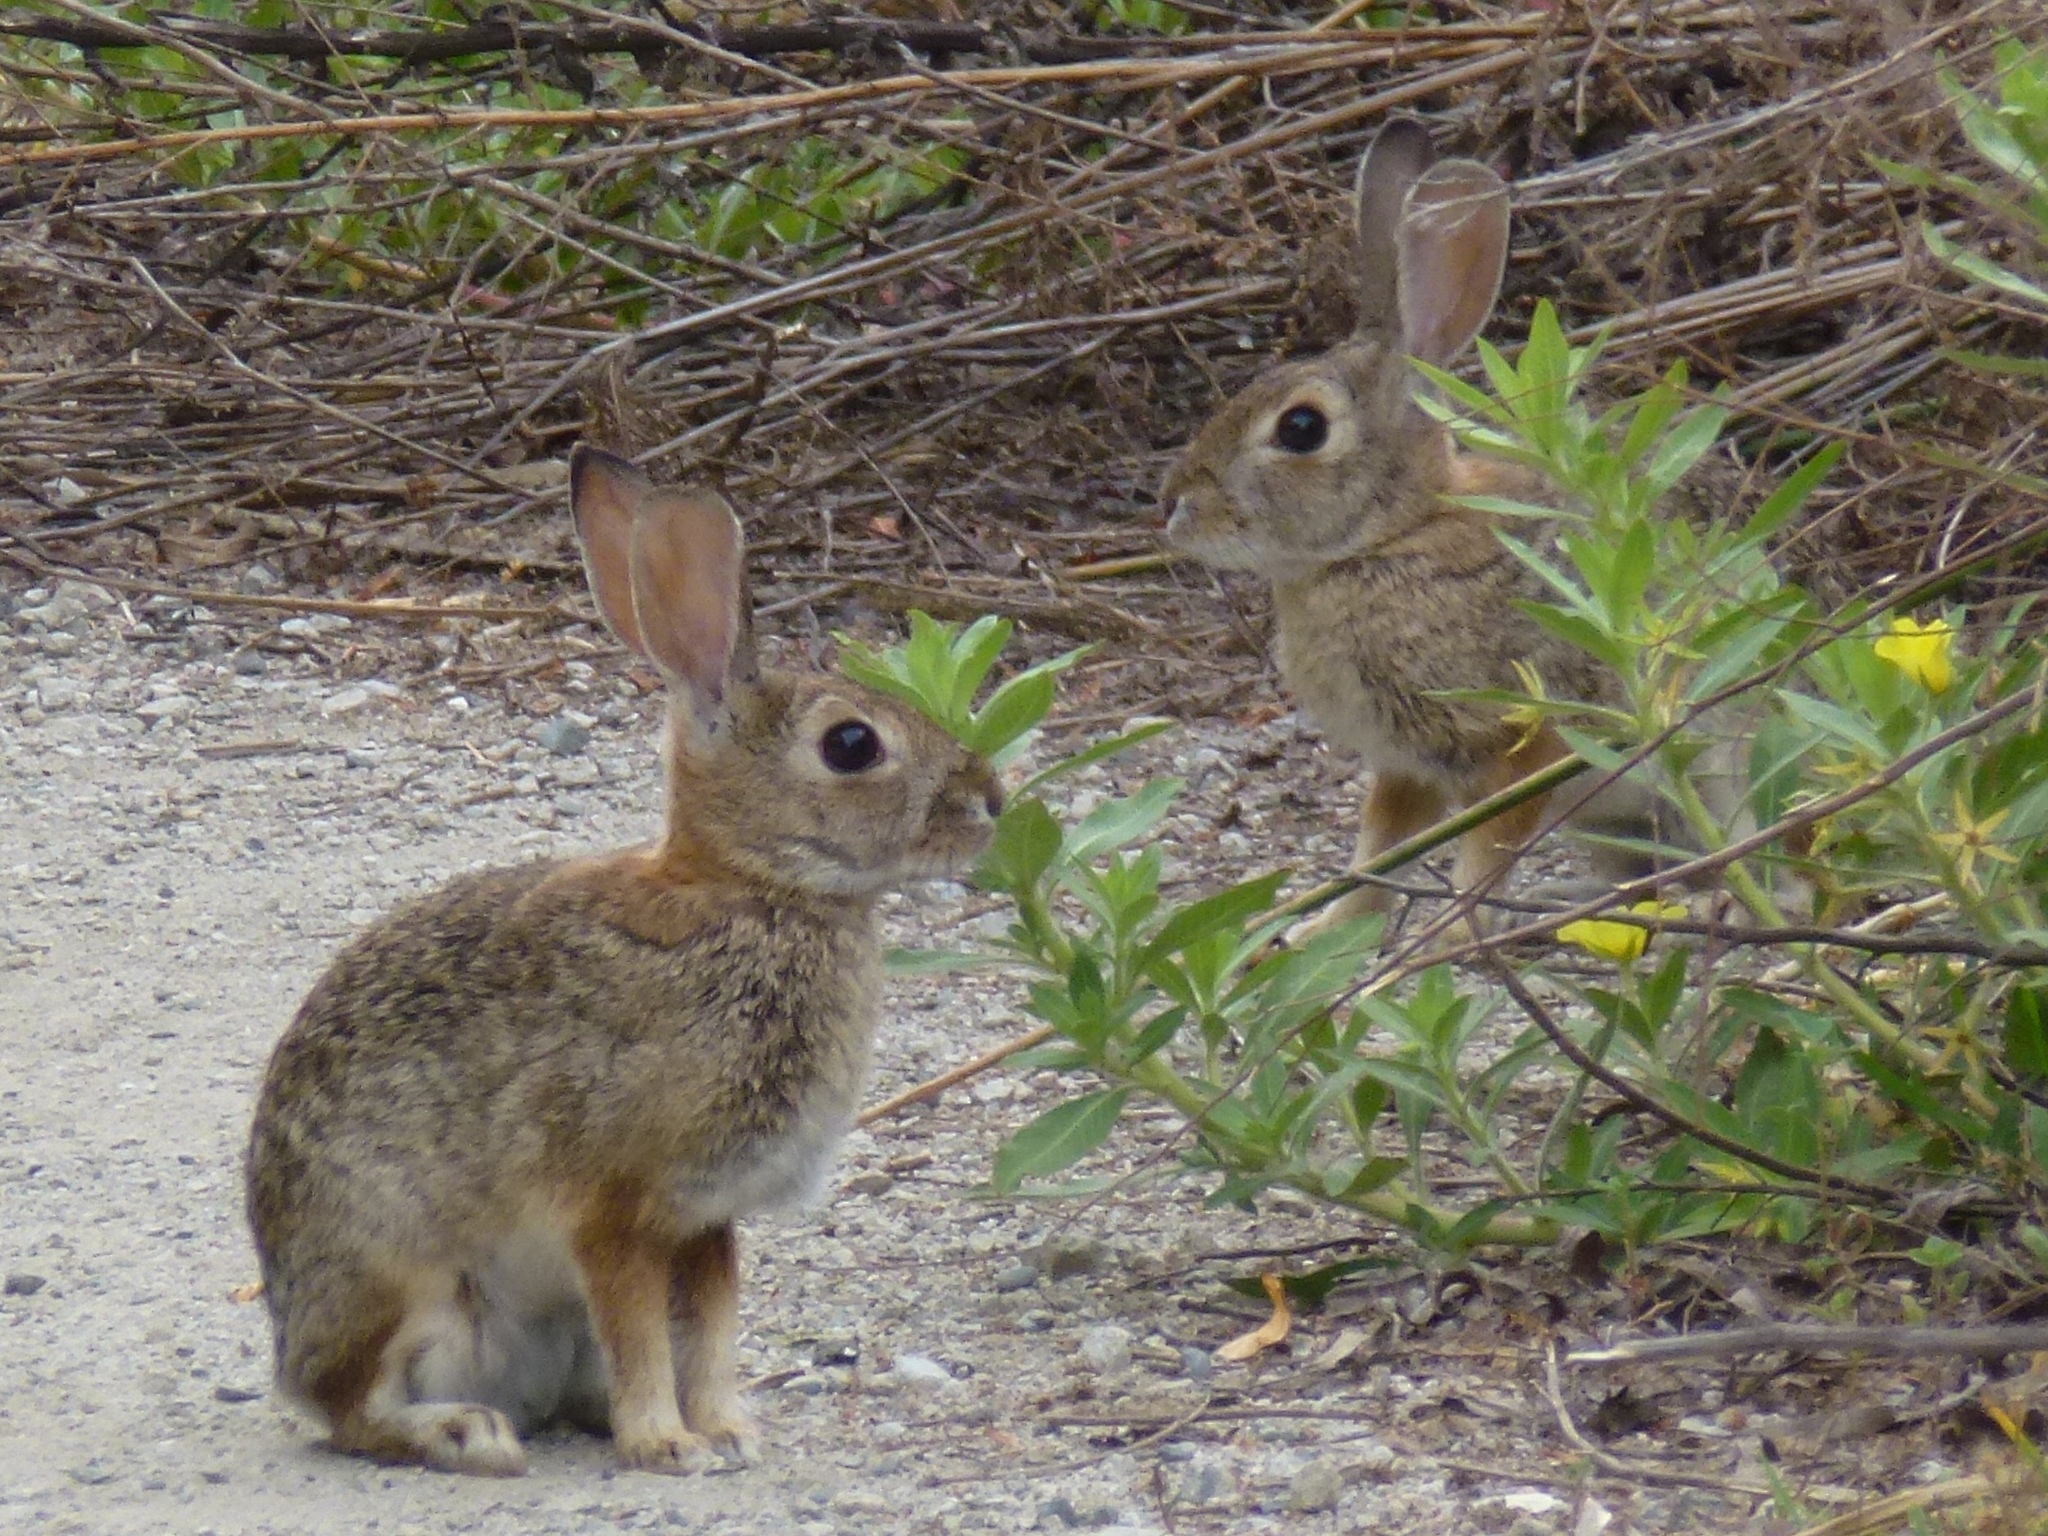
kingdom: Animalia
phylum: Chordata
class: Mammalia
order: Lagomorpha
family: Leporidae
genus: Sylvilagus
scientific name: Sylvilagus audubonii
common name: Desert cottontail
